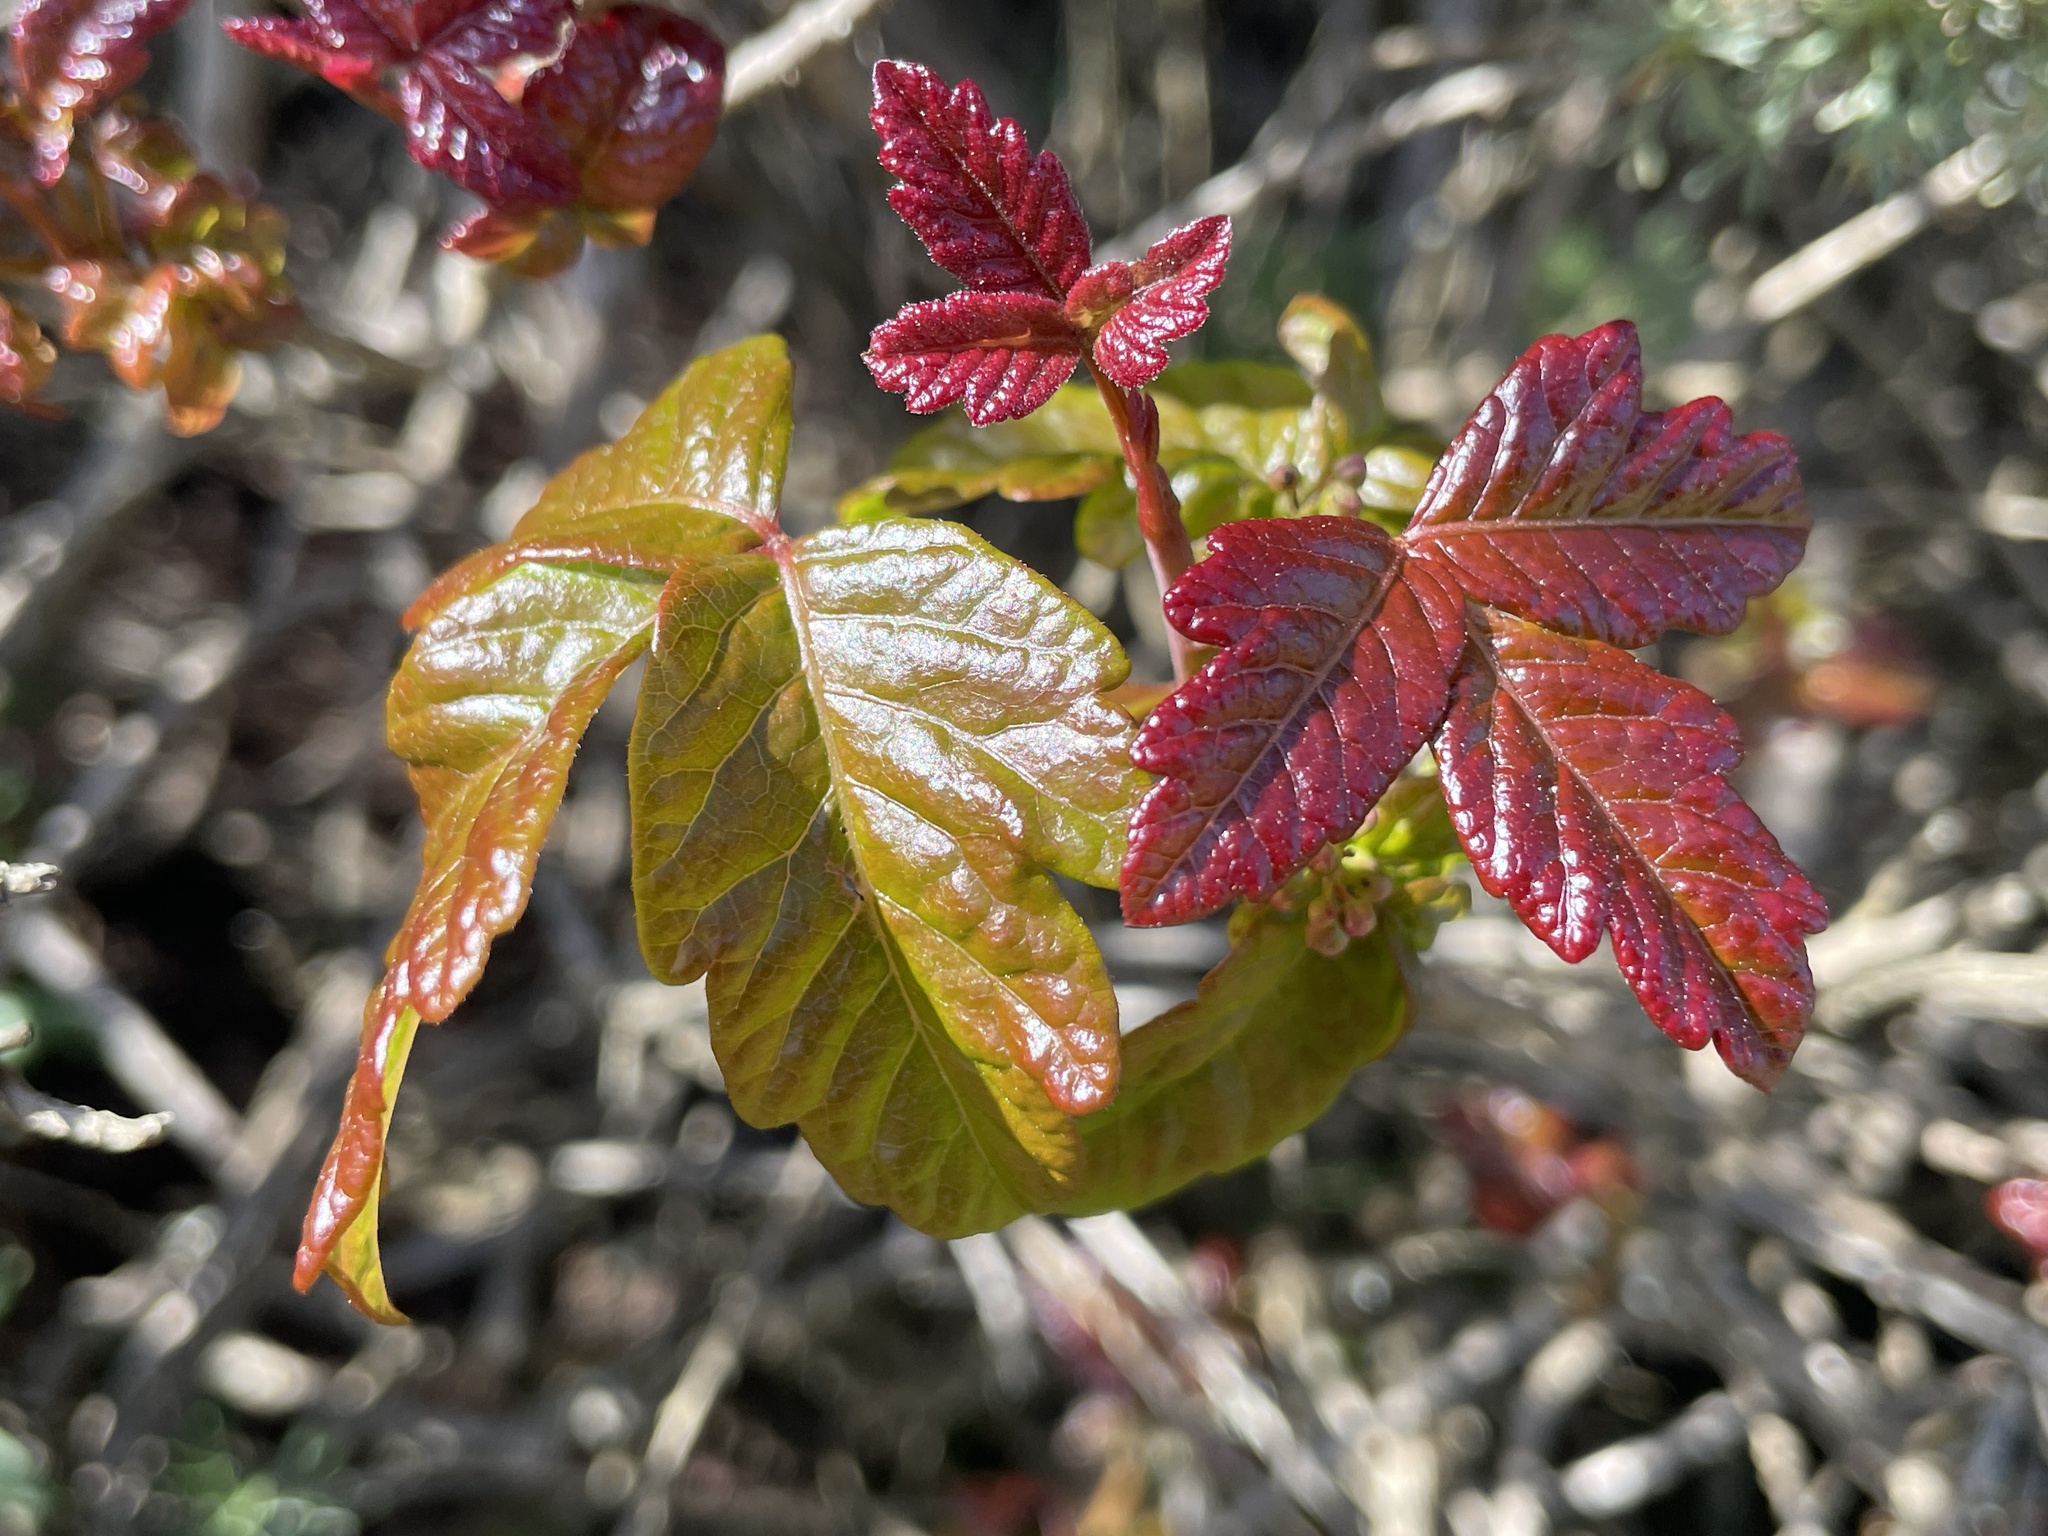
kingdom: Plantae
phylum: Tracheophyta
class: Magnoliopsida
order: Sapindales
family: Anacardiaceae
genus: Toxicodendron
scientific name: Toxicodendron diversilobum
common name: Pacific poison-oak
